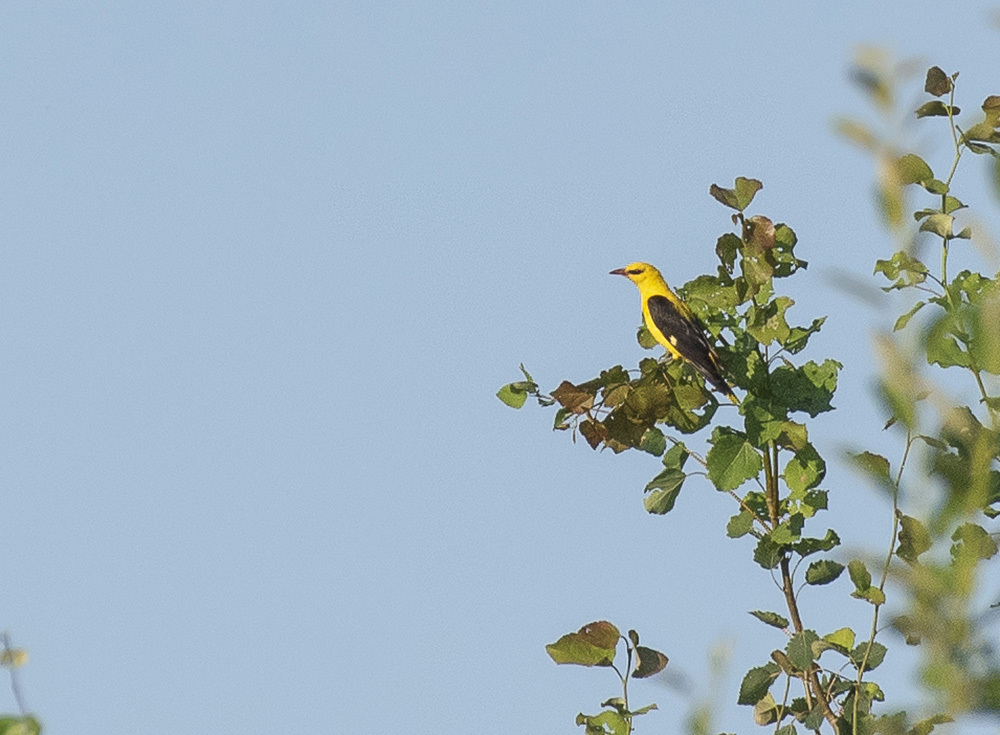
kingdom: Animalia
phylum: Chordata
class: Aves
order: Passeriformes
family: Oriolidae
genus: Oriolus
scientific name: Oriolus oriolus
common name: Eurasian golden oriole
